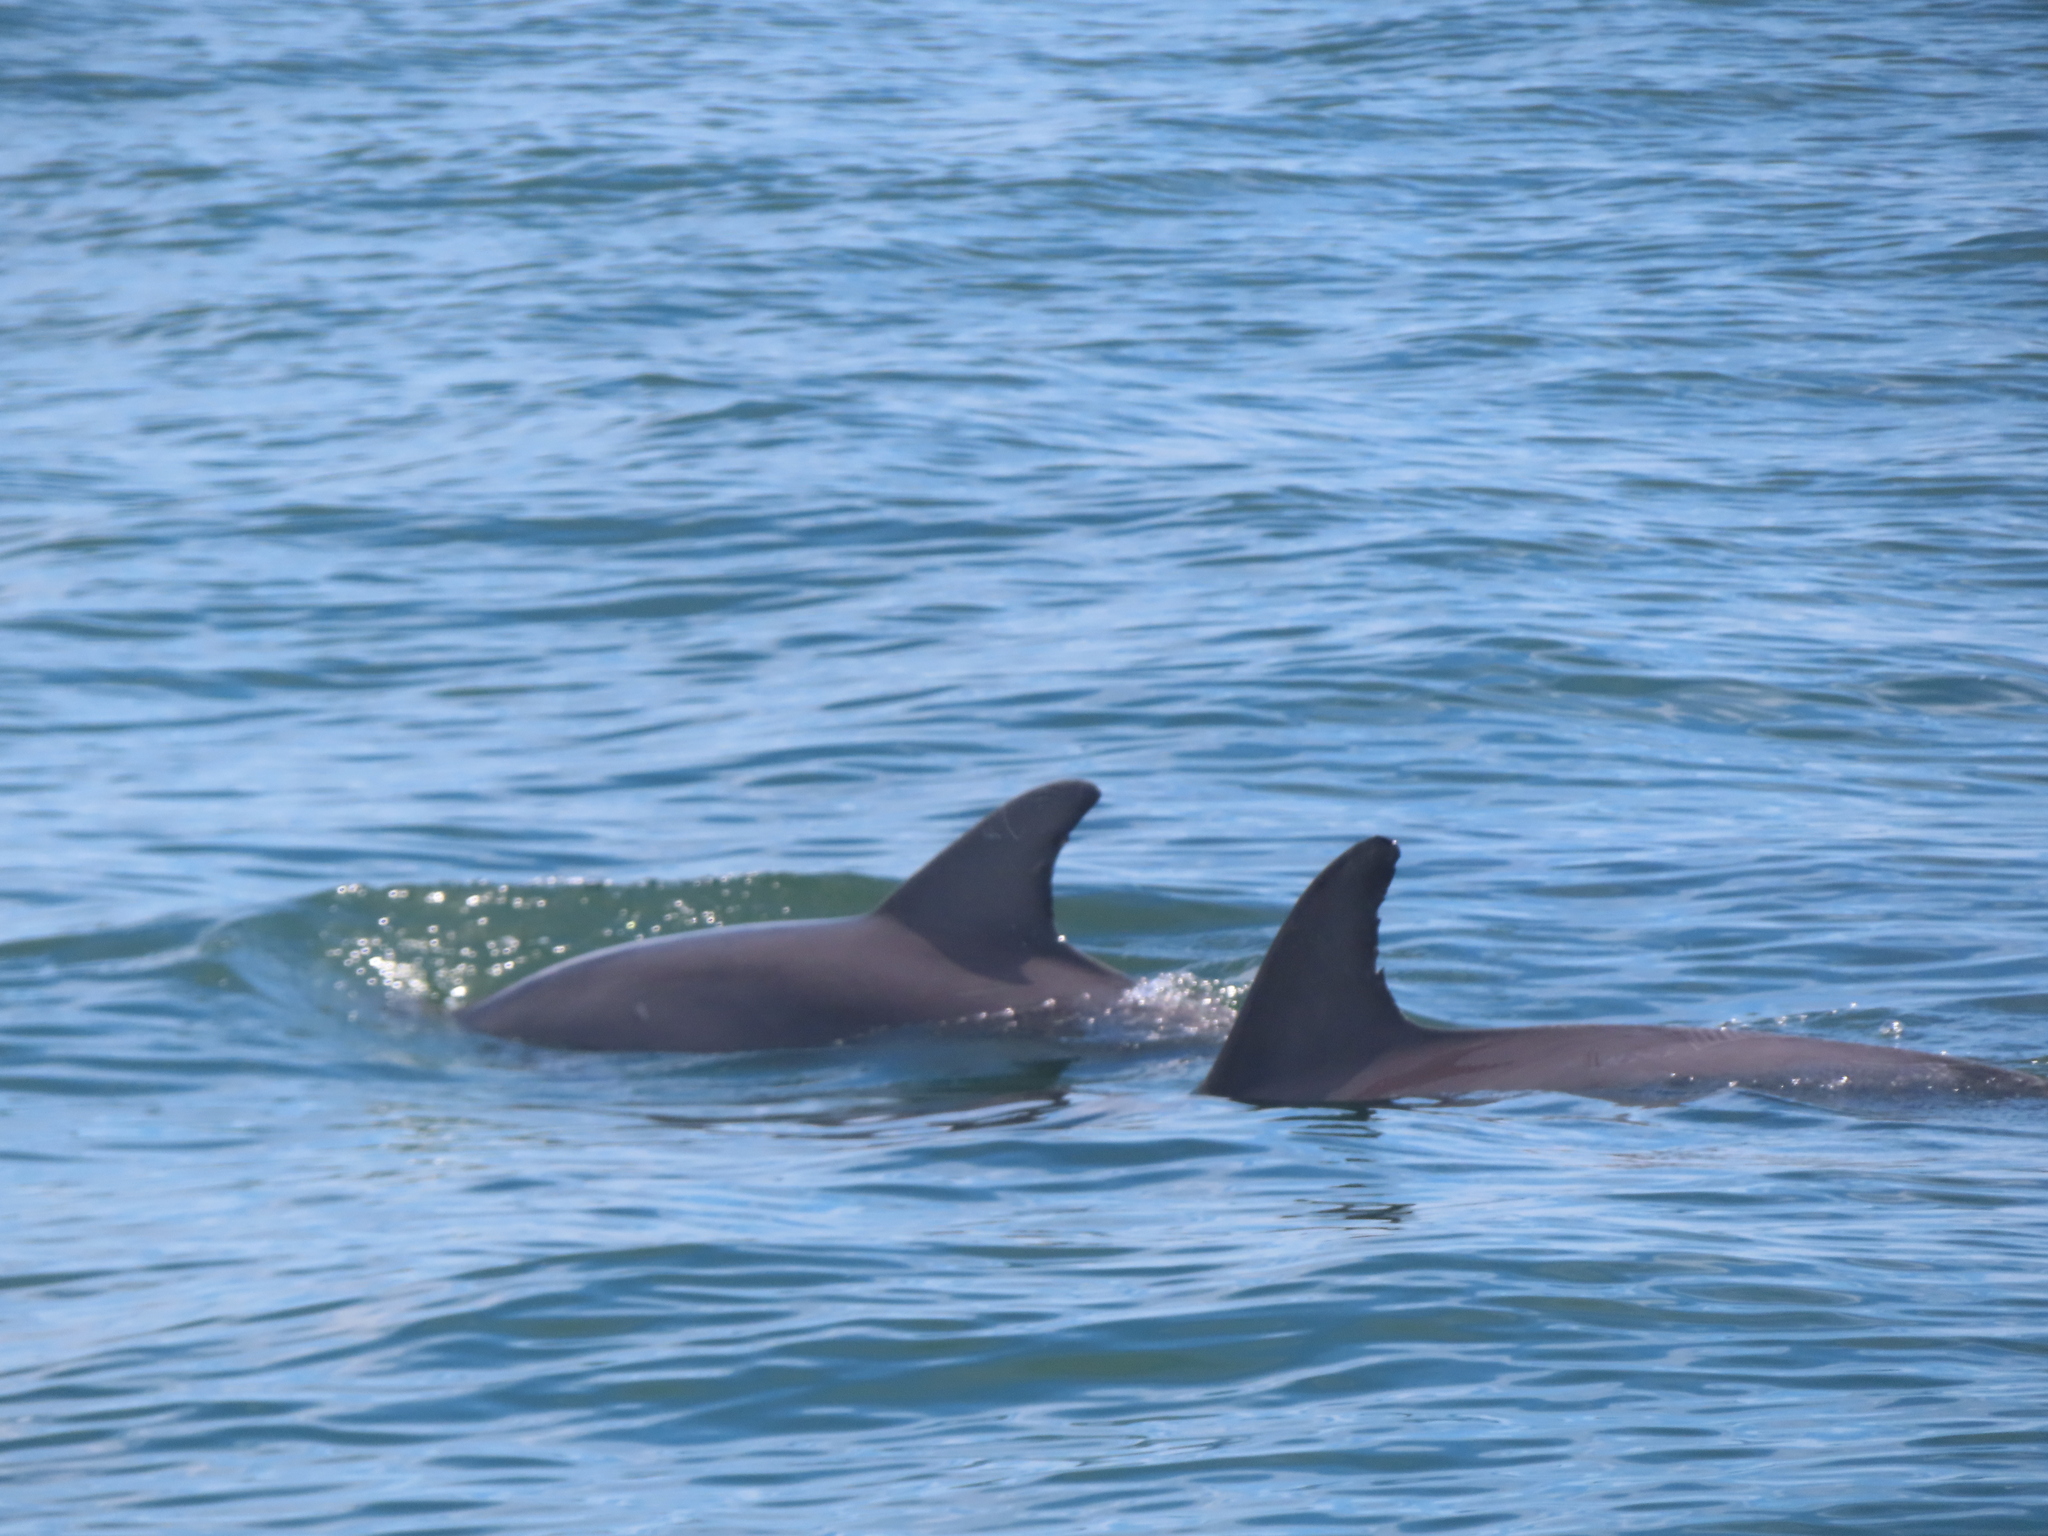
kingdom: Animalia
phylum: Chordata
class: Mammalia
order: Cetacea
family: Delphinidae
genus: Tursiops
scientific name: Tursiops truncatus
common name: Bottlenose dolphin
